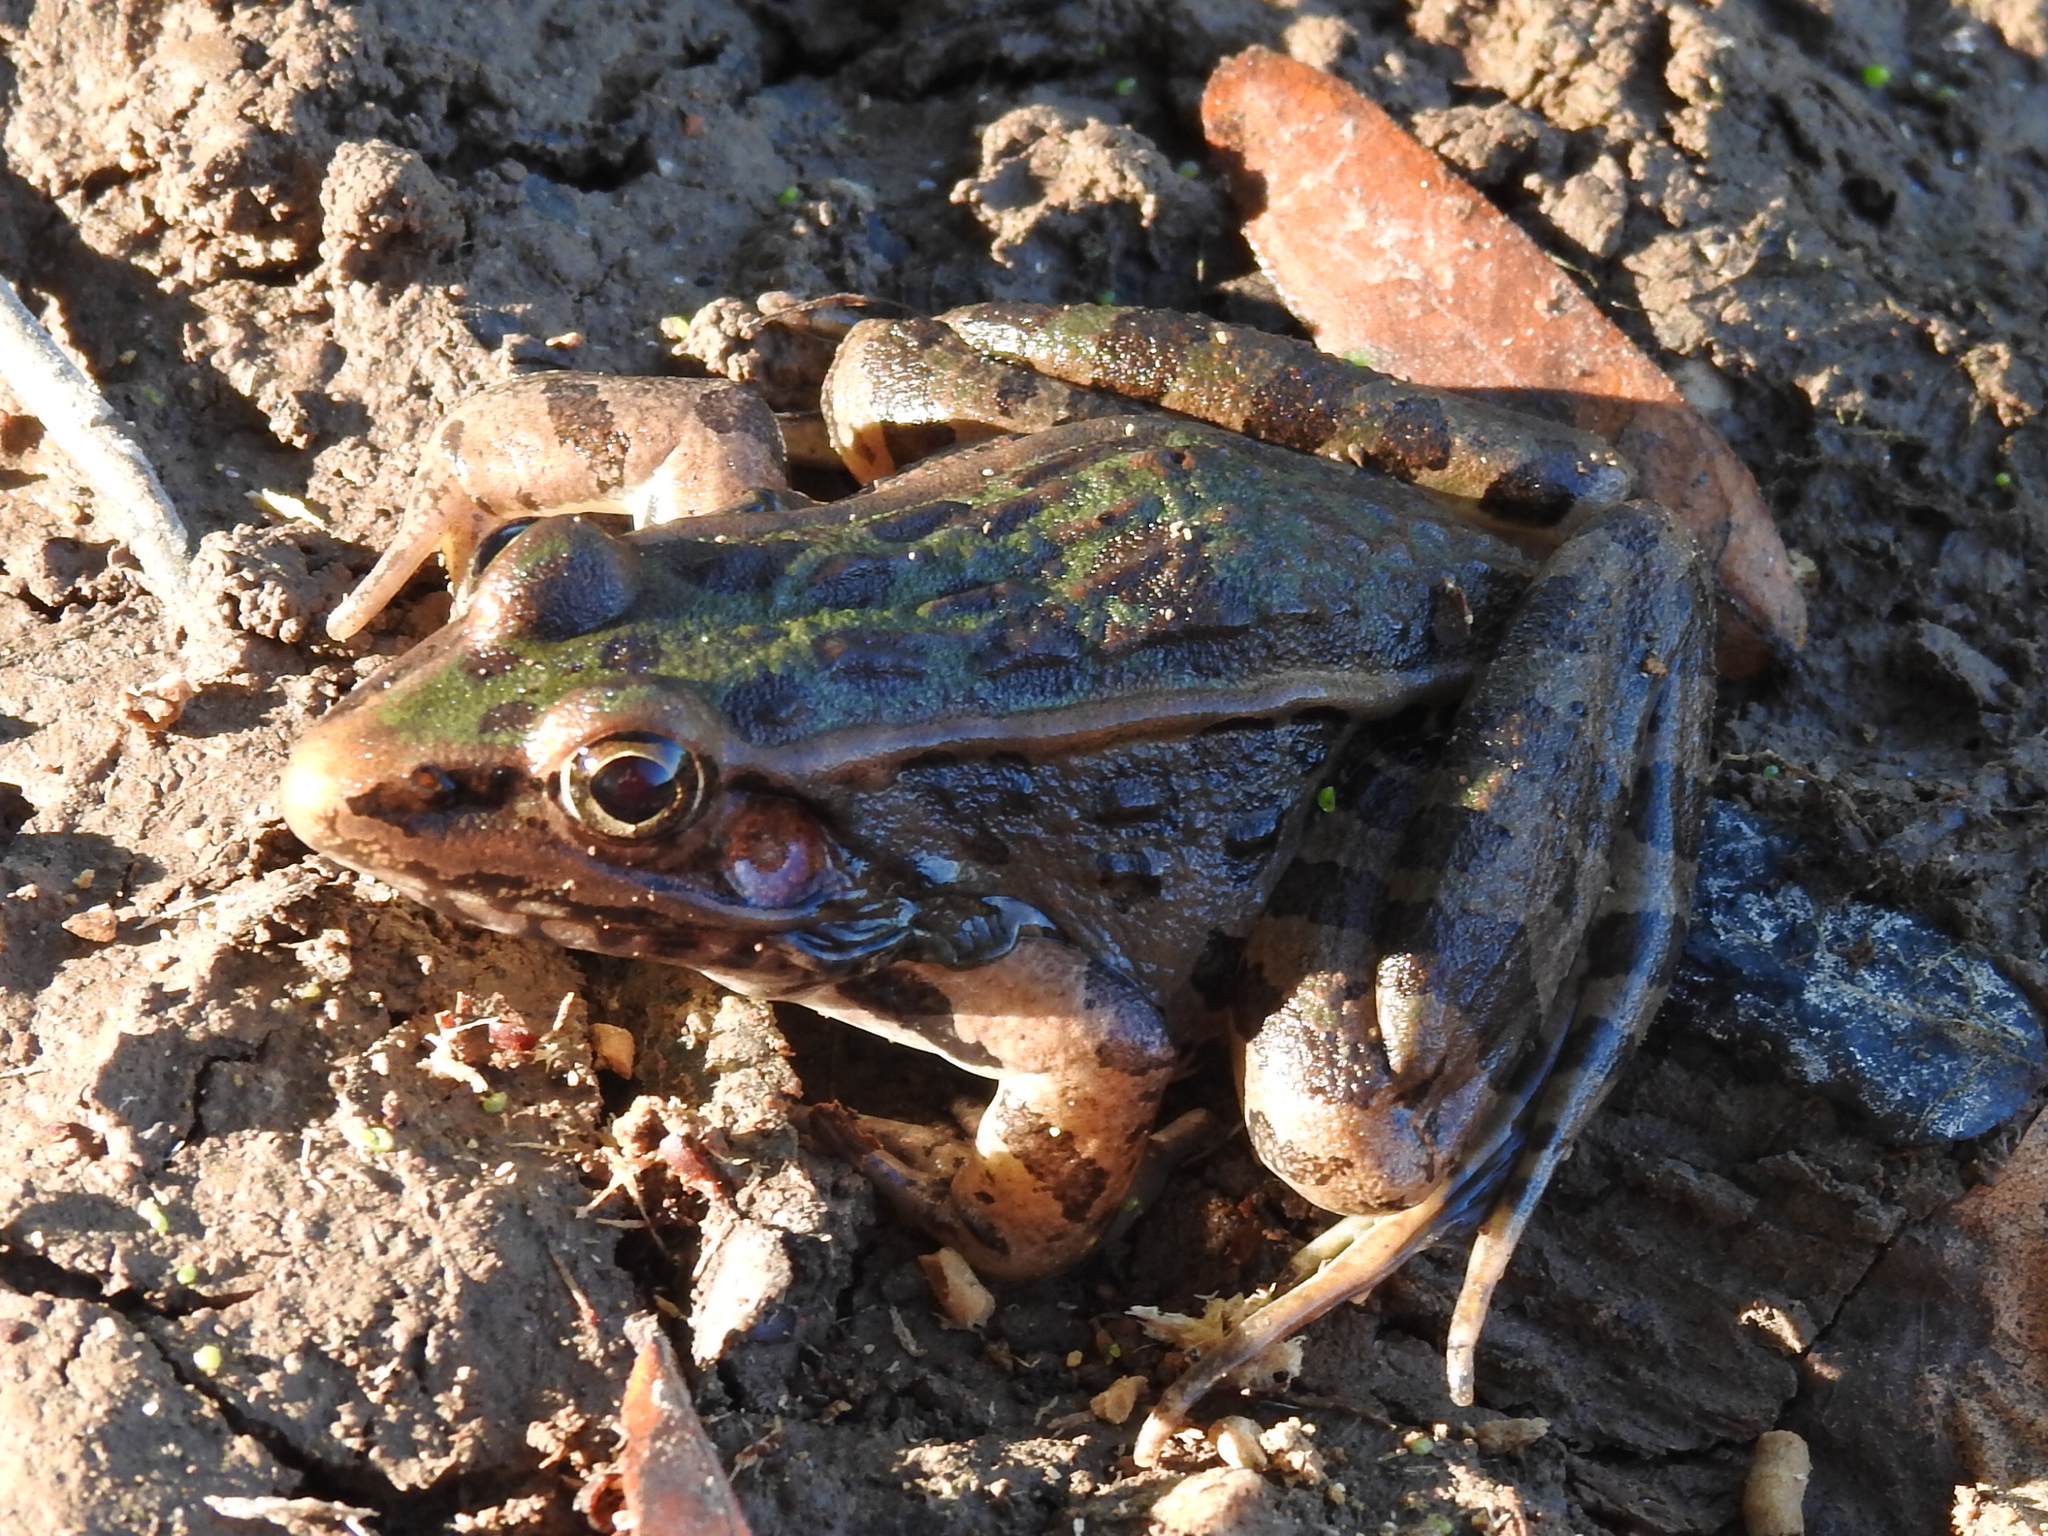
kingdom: Animalia
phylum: Chordata
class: Amphibia
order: Anura
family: Ranidae
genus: Lithobates
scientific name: Lithobates sphenocephalus
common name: Southern leopard frog
